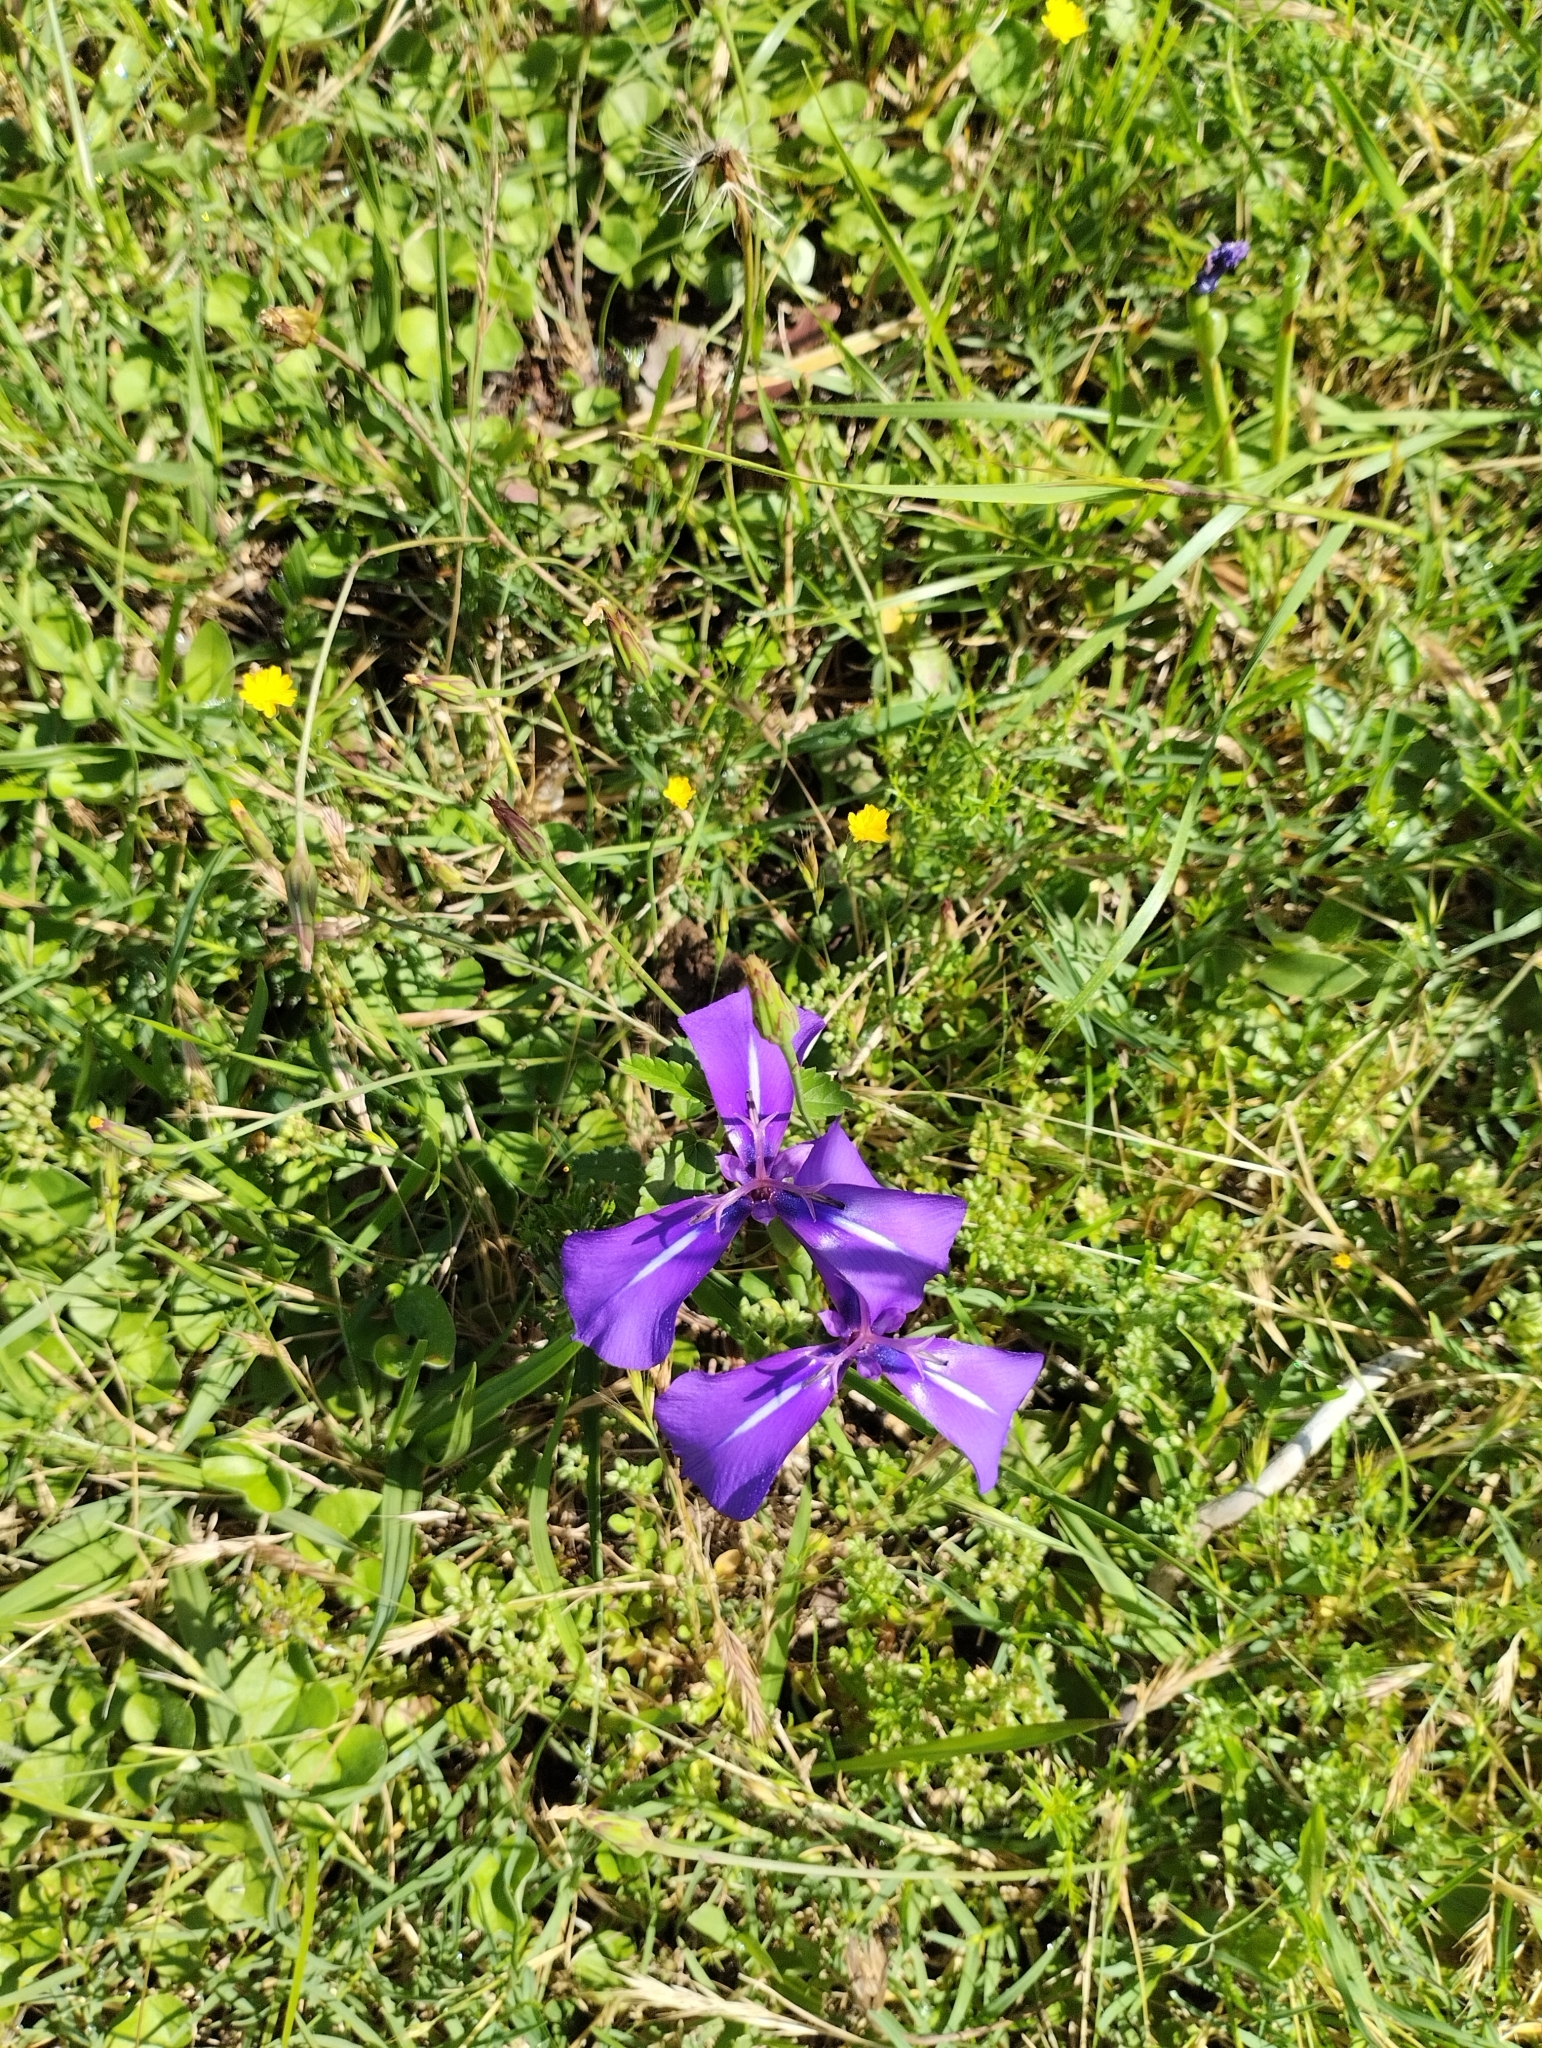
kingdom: Plantae
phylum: Tracheophyta
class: Liliopsida
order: Asparagales
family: Iridaceae
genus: Herbertia
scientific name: Herbertia pulchella
